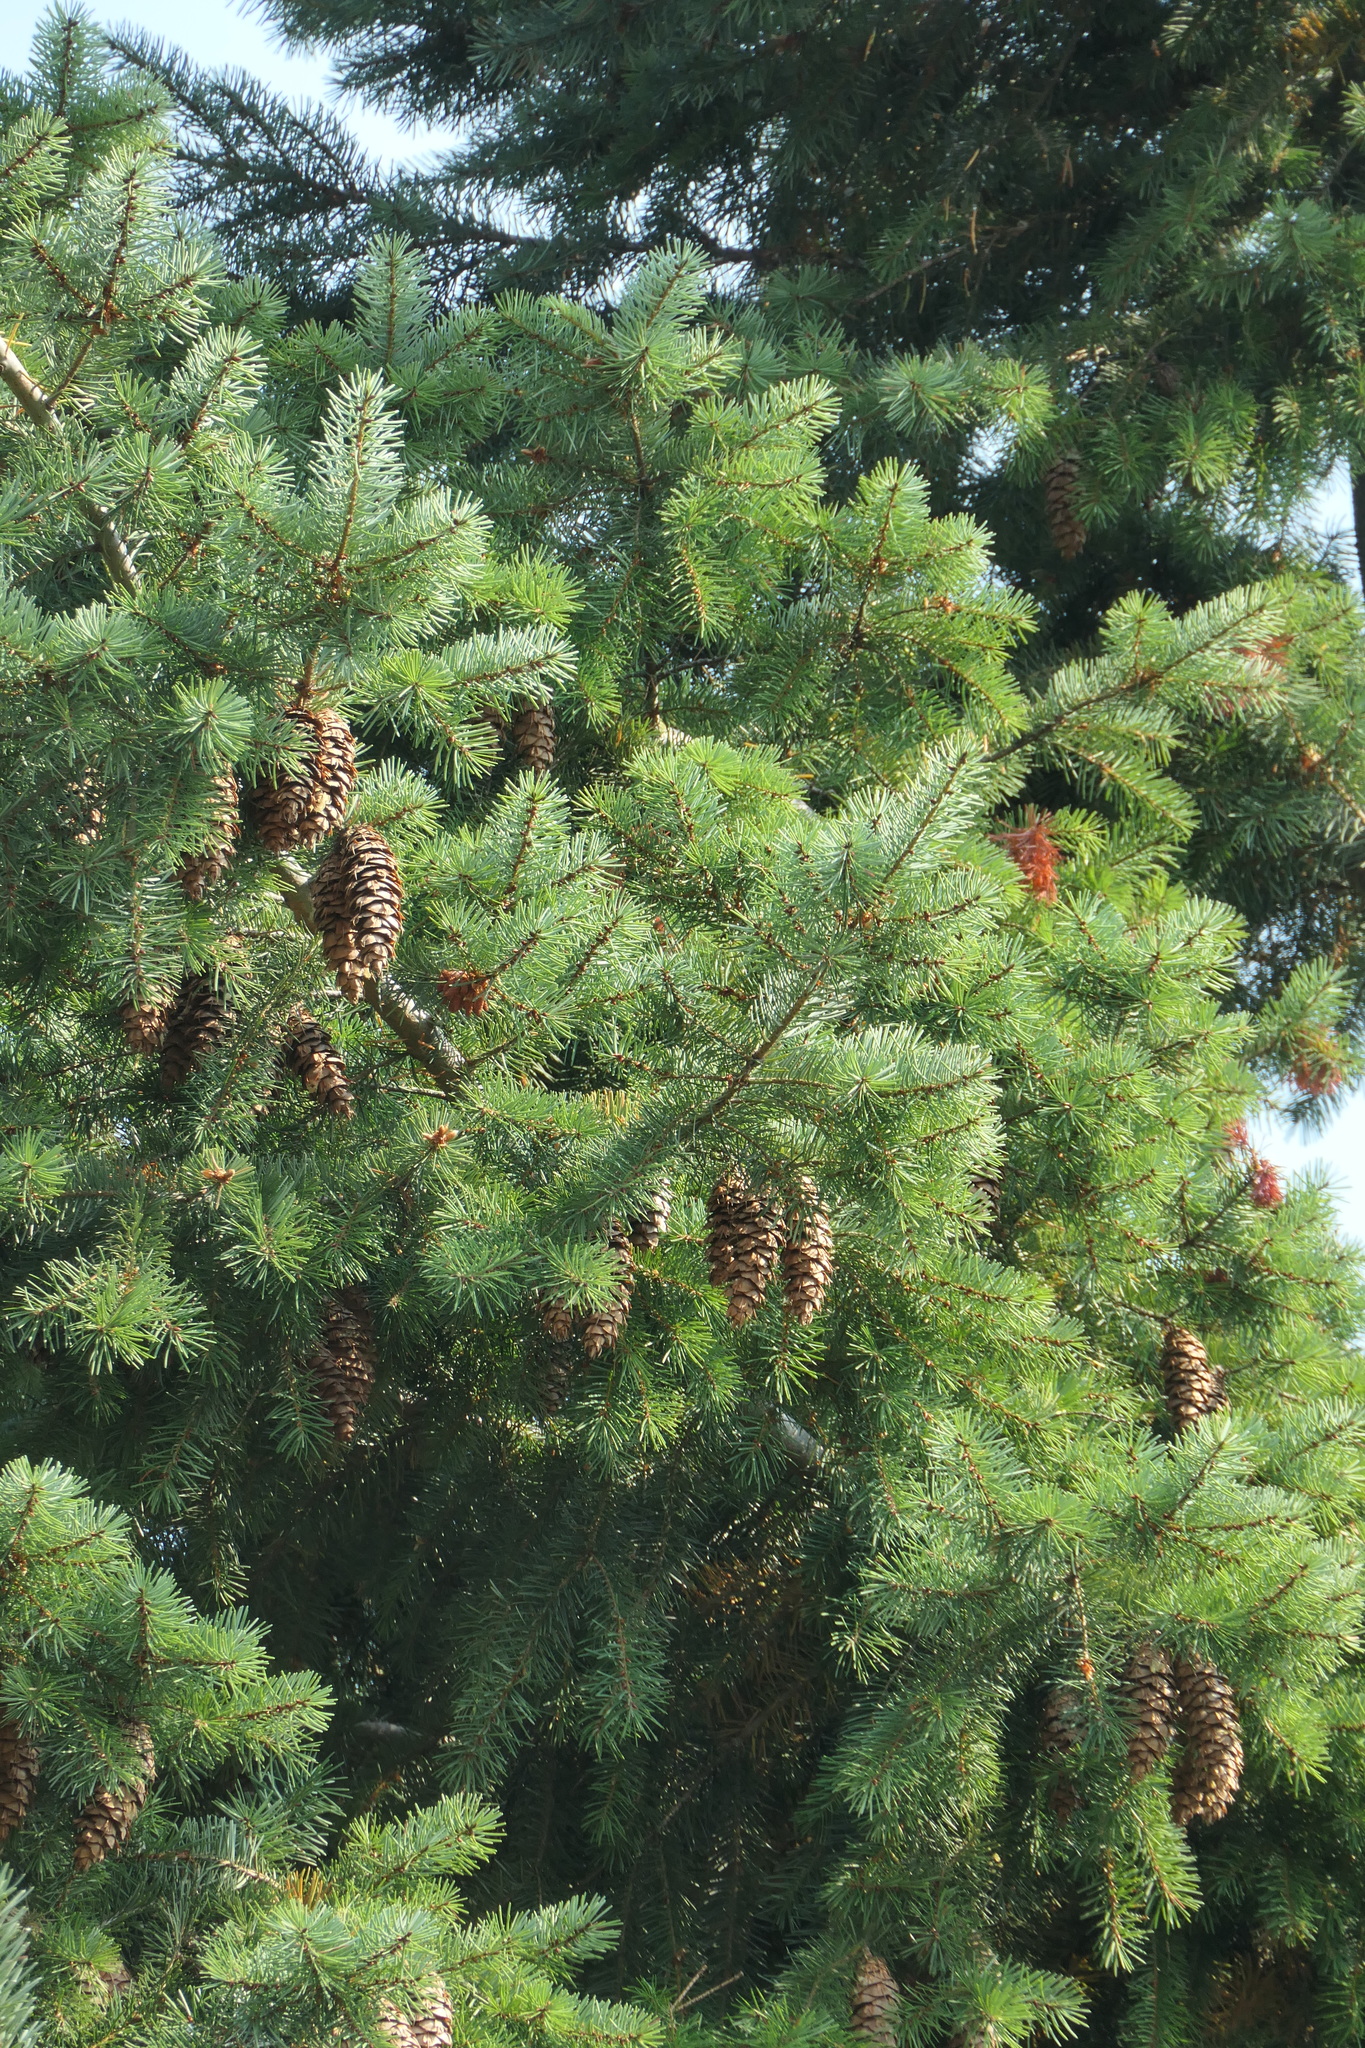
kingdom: Plantae
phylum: Tracheophyta
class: Pinopsida
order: Pinales
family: Pinaceae
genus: Pseudotsuga
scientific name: Pseudotsuga menziesii
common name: Douglas fir
